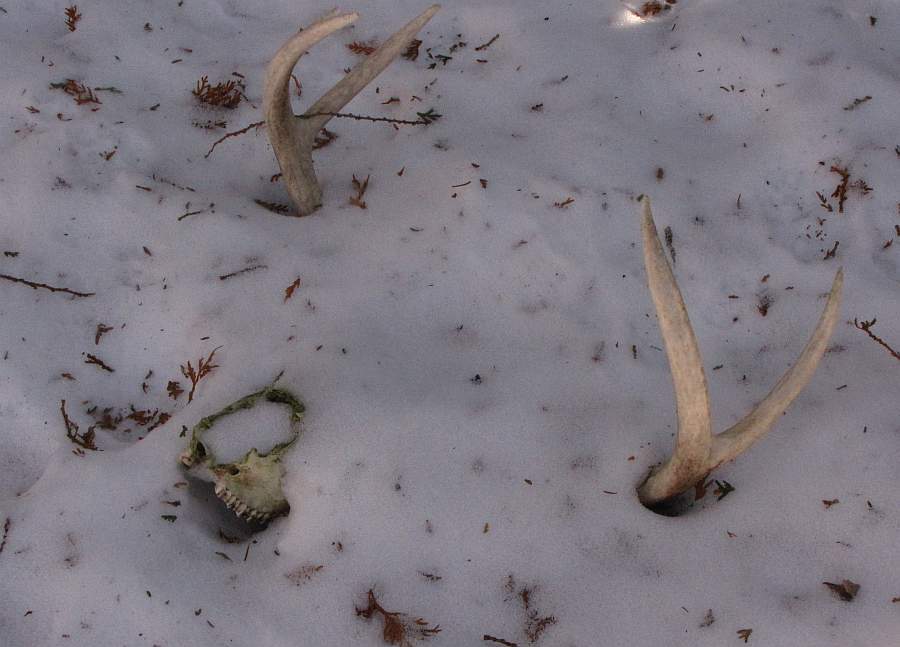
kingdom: Animalia
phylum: Chordata
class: Mammalia
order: Artiodactyla
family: Cervidae
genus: Odocoileus
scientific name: Odocoileus virginianus
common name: White-tailed deer
